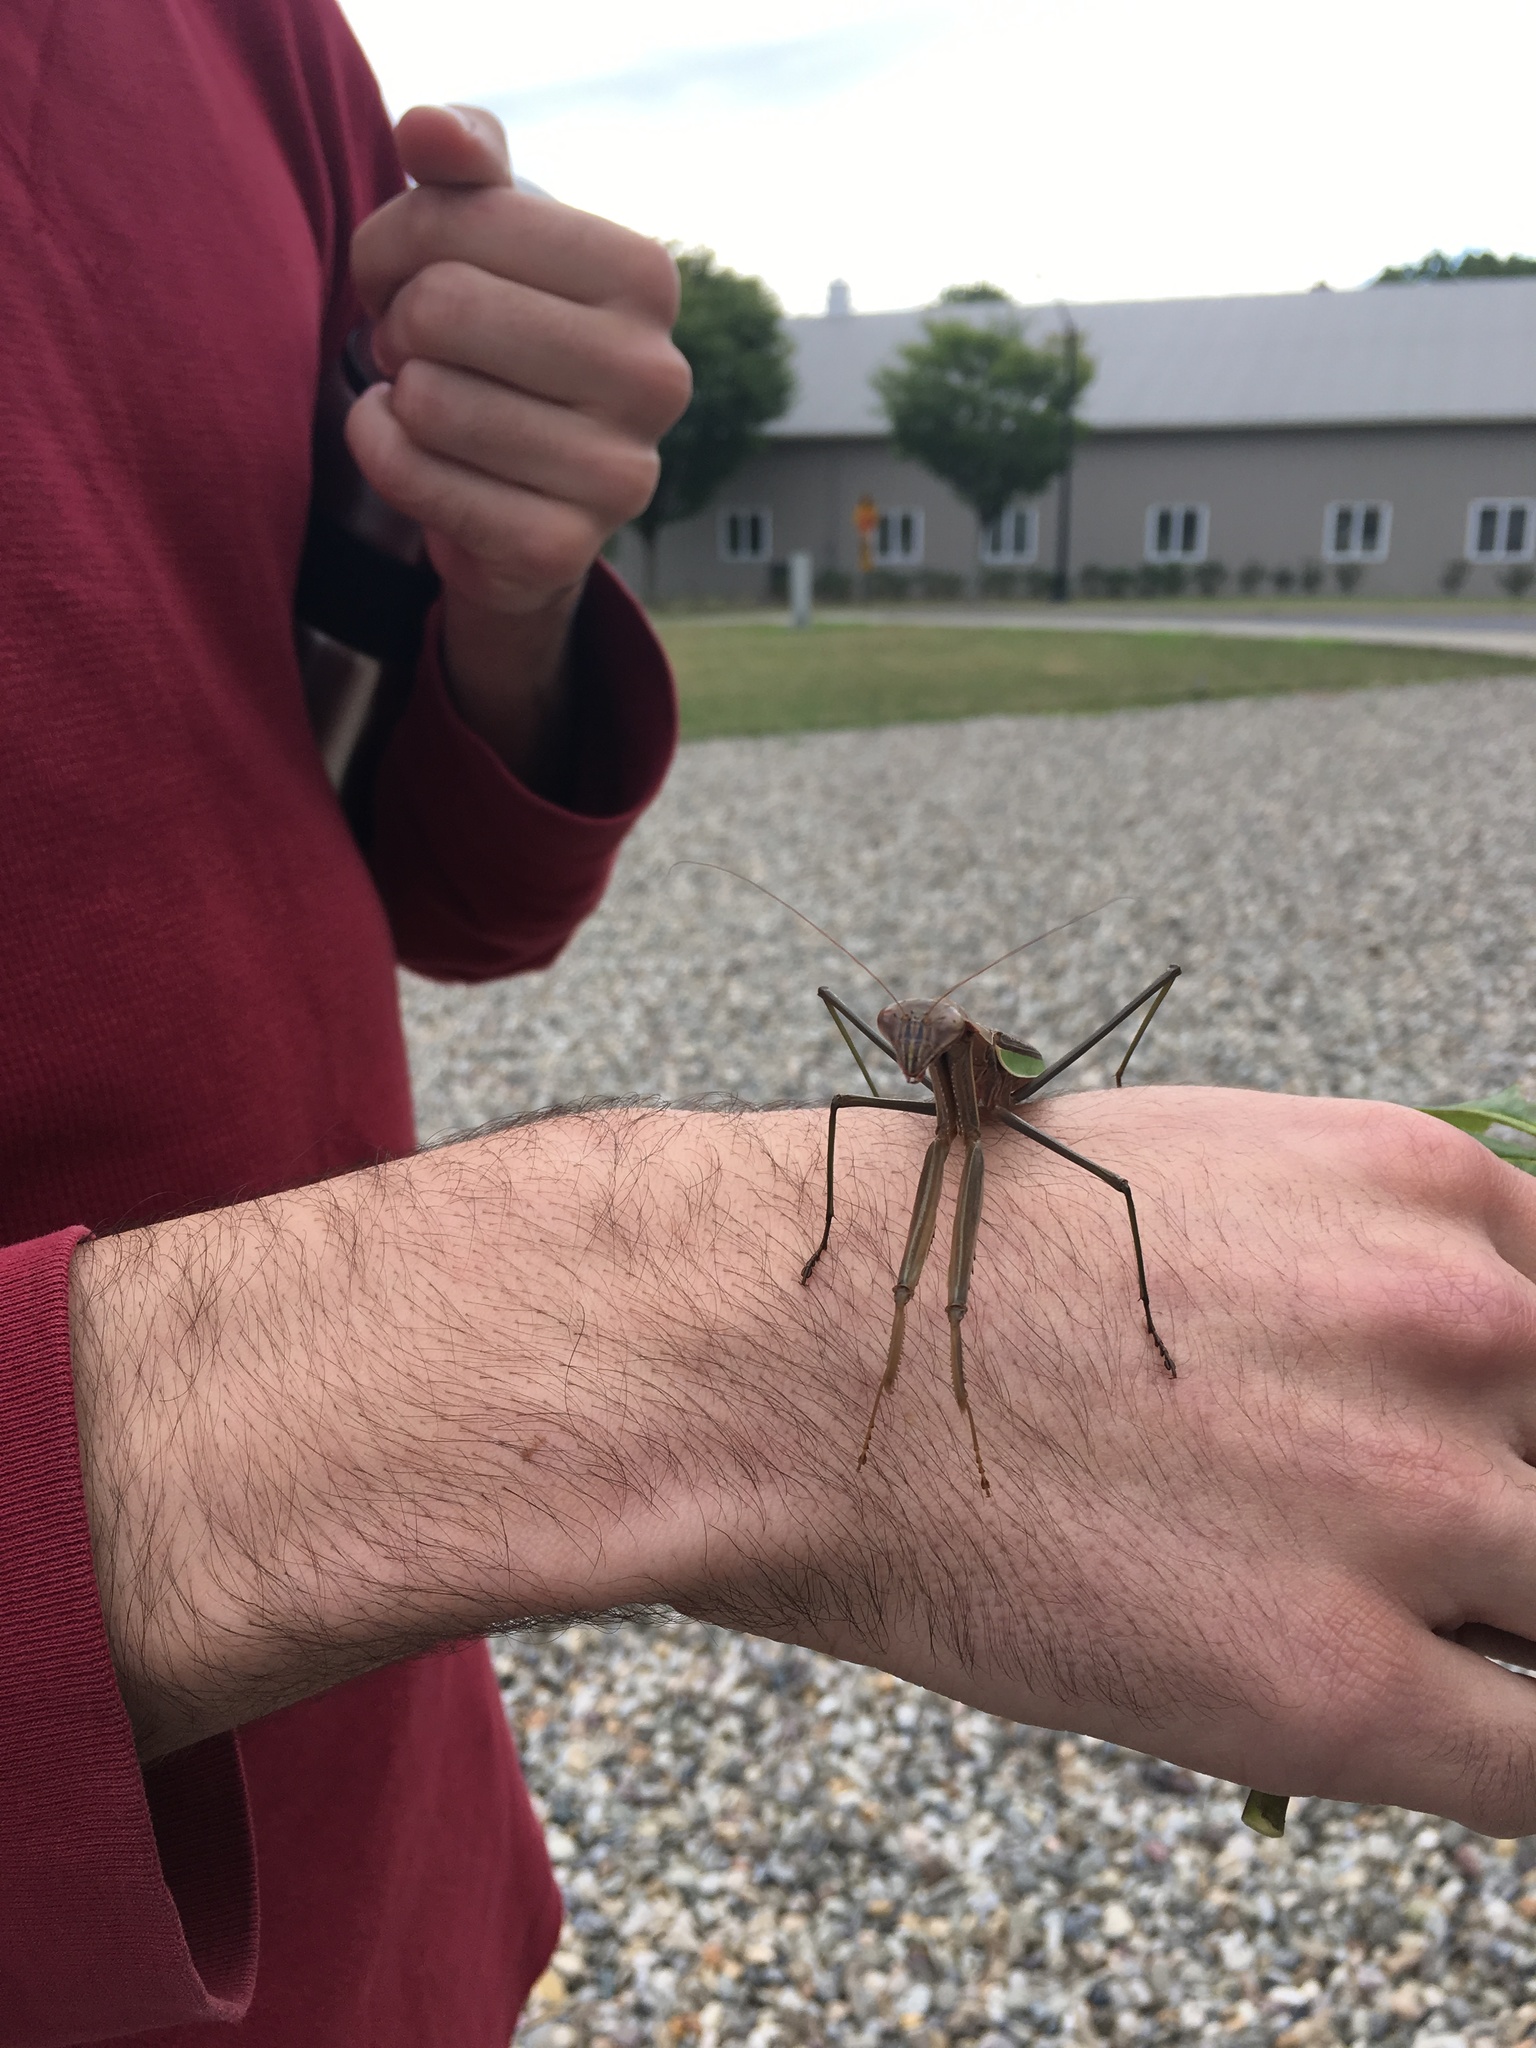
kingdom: Animalia
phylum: Arthropoda
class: Insecta
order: Mantodea
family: Mantidae
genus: Tenodera
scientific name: Tenodera sinensis
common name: Chinese mantis
